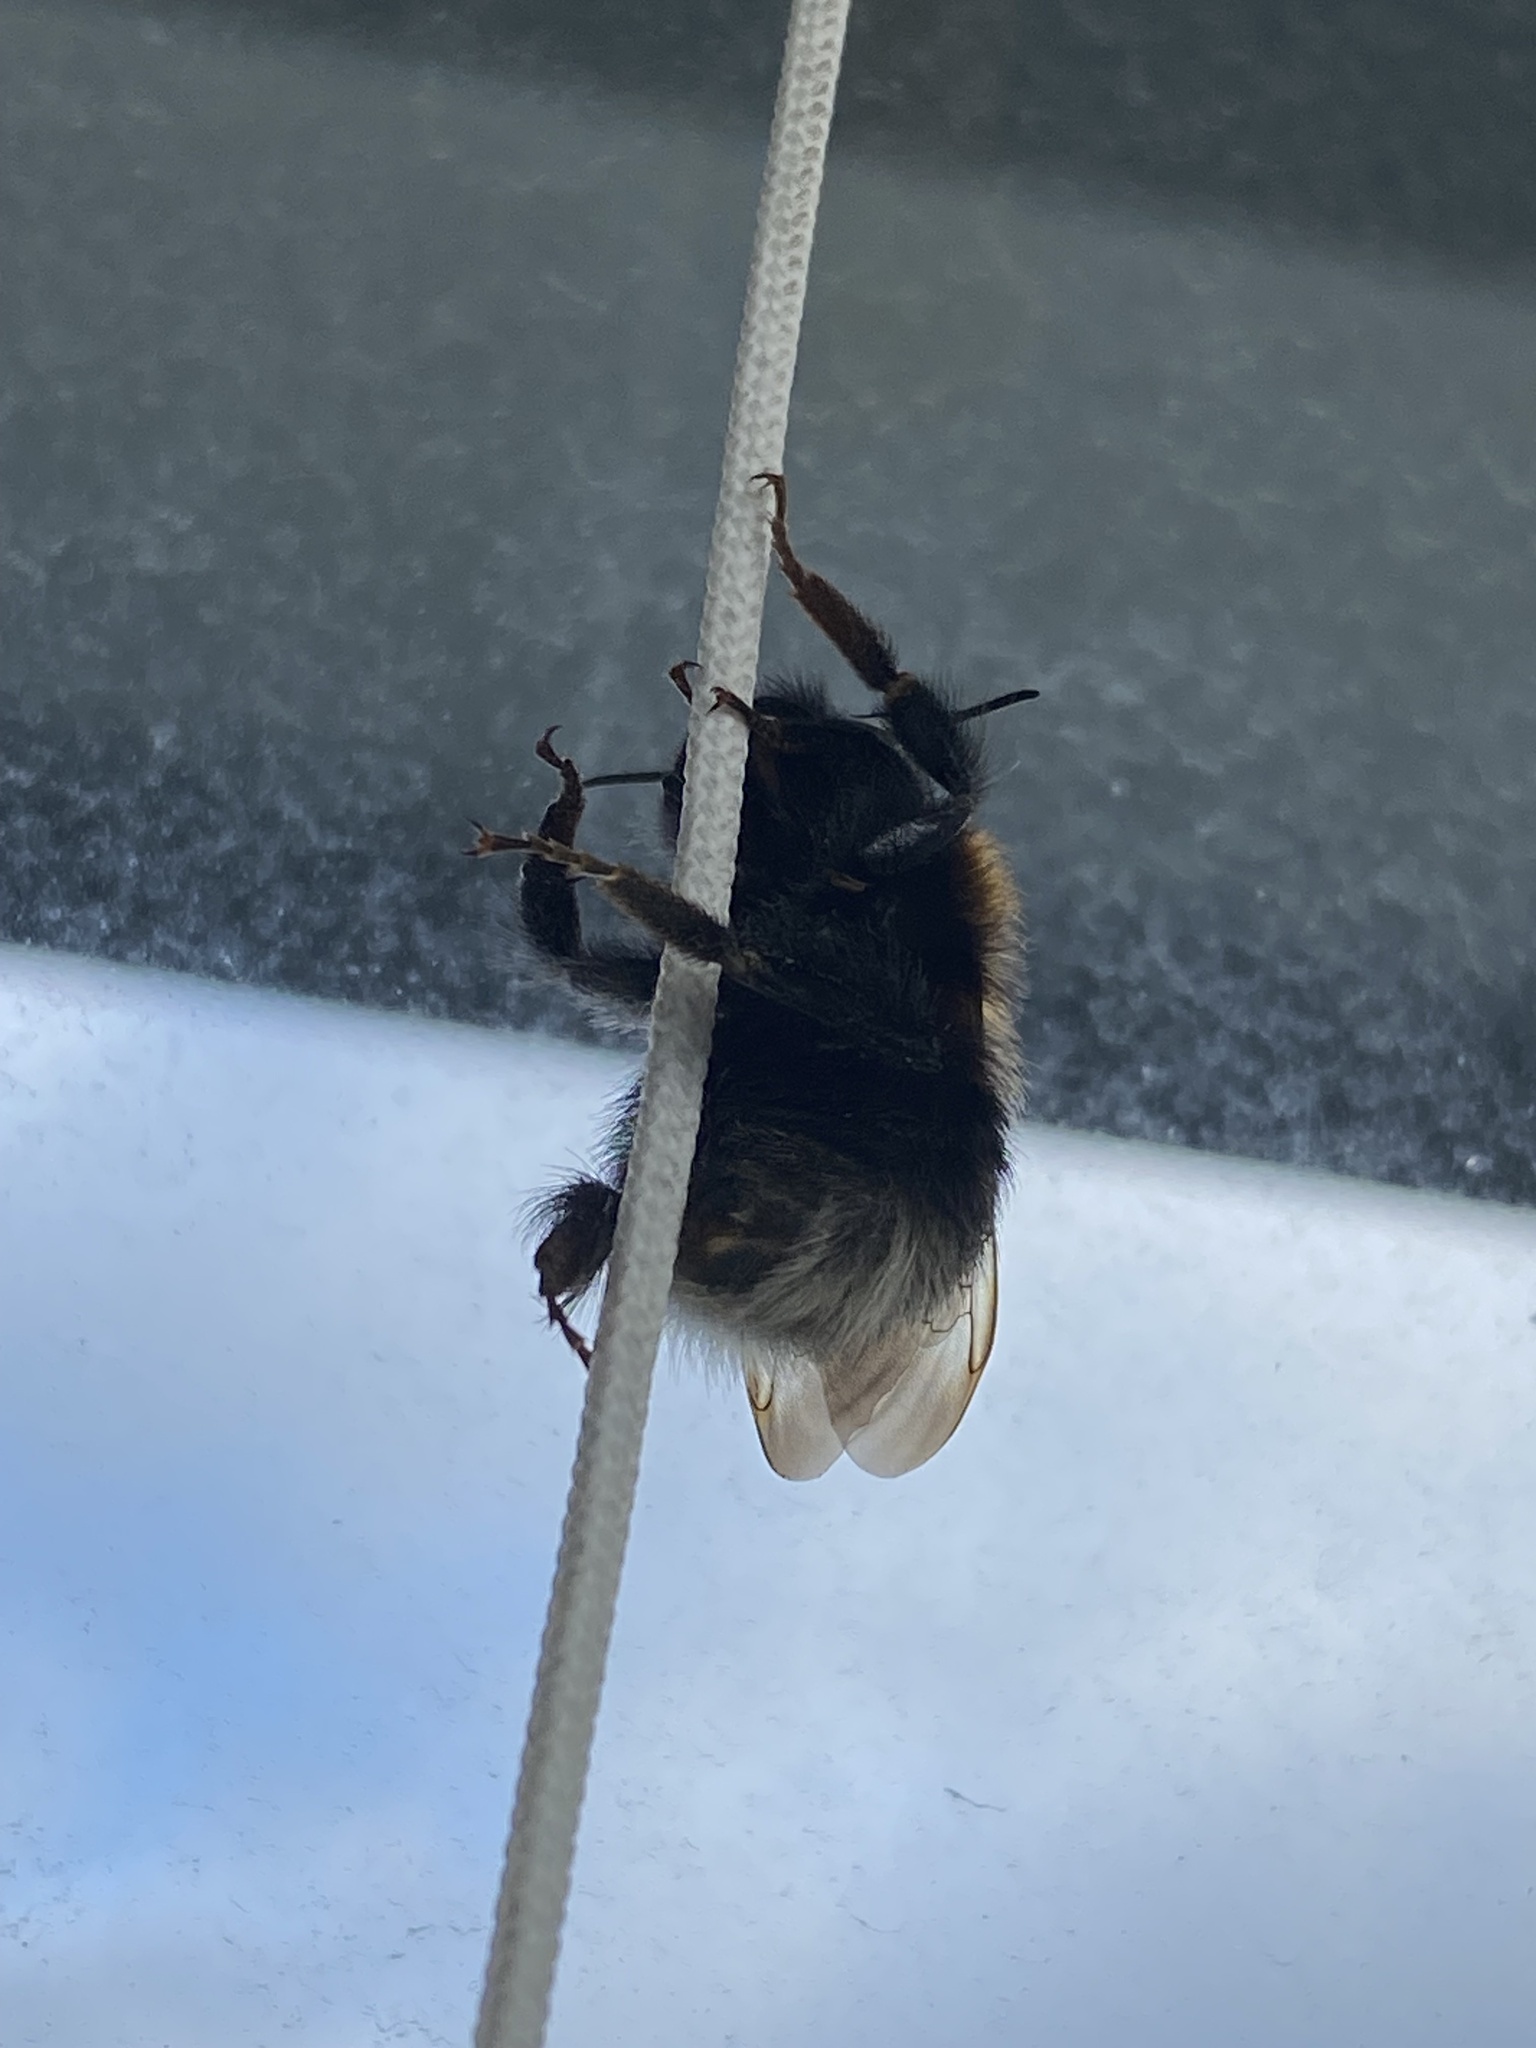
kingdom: Animalia
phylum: Arthropoda
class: Insecta
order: Hymenoptera
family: Apidae
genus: Bombus
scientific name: Bombus hypnorum
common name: New garden bumblebee
